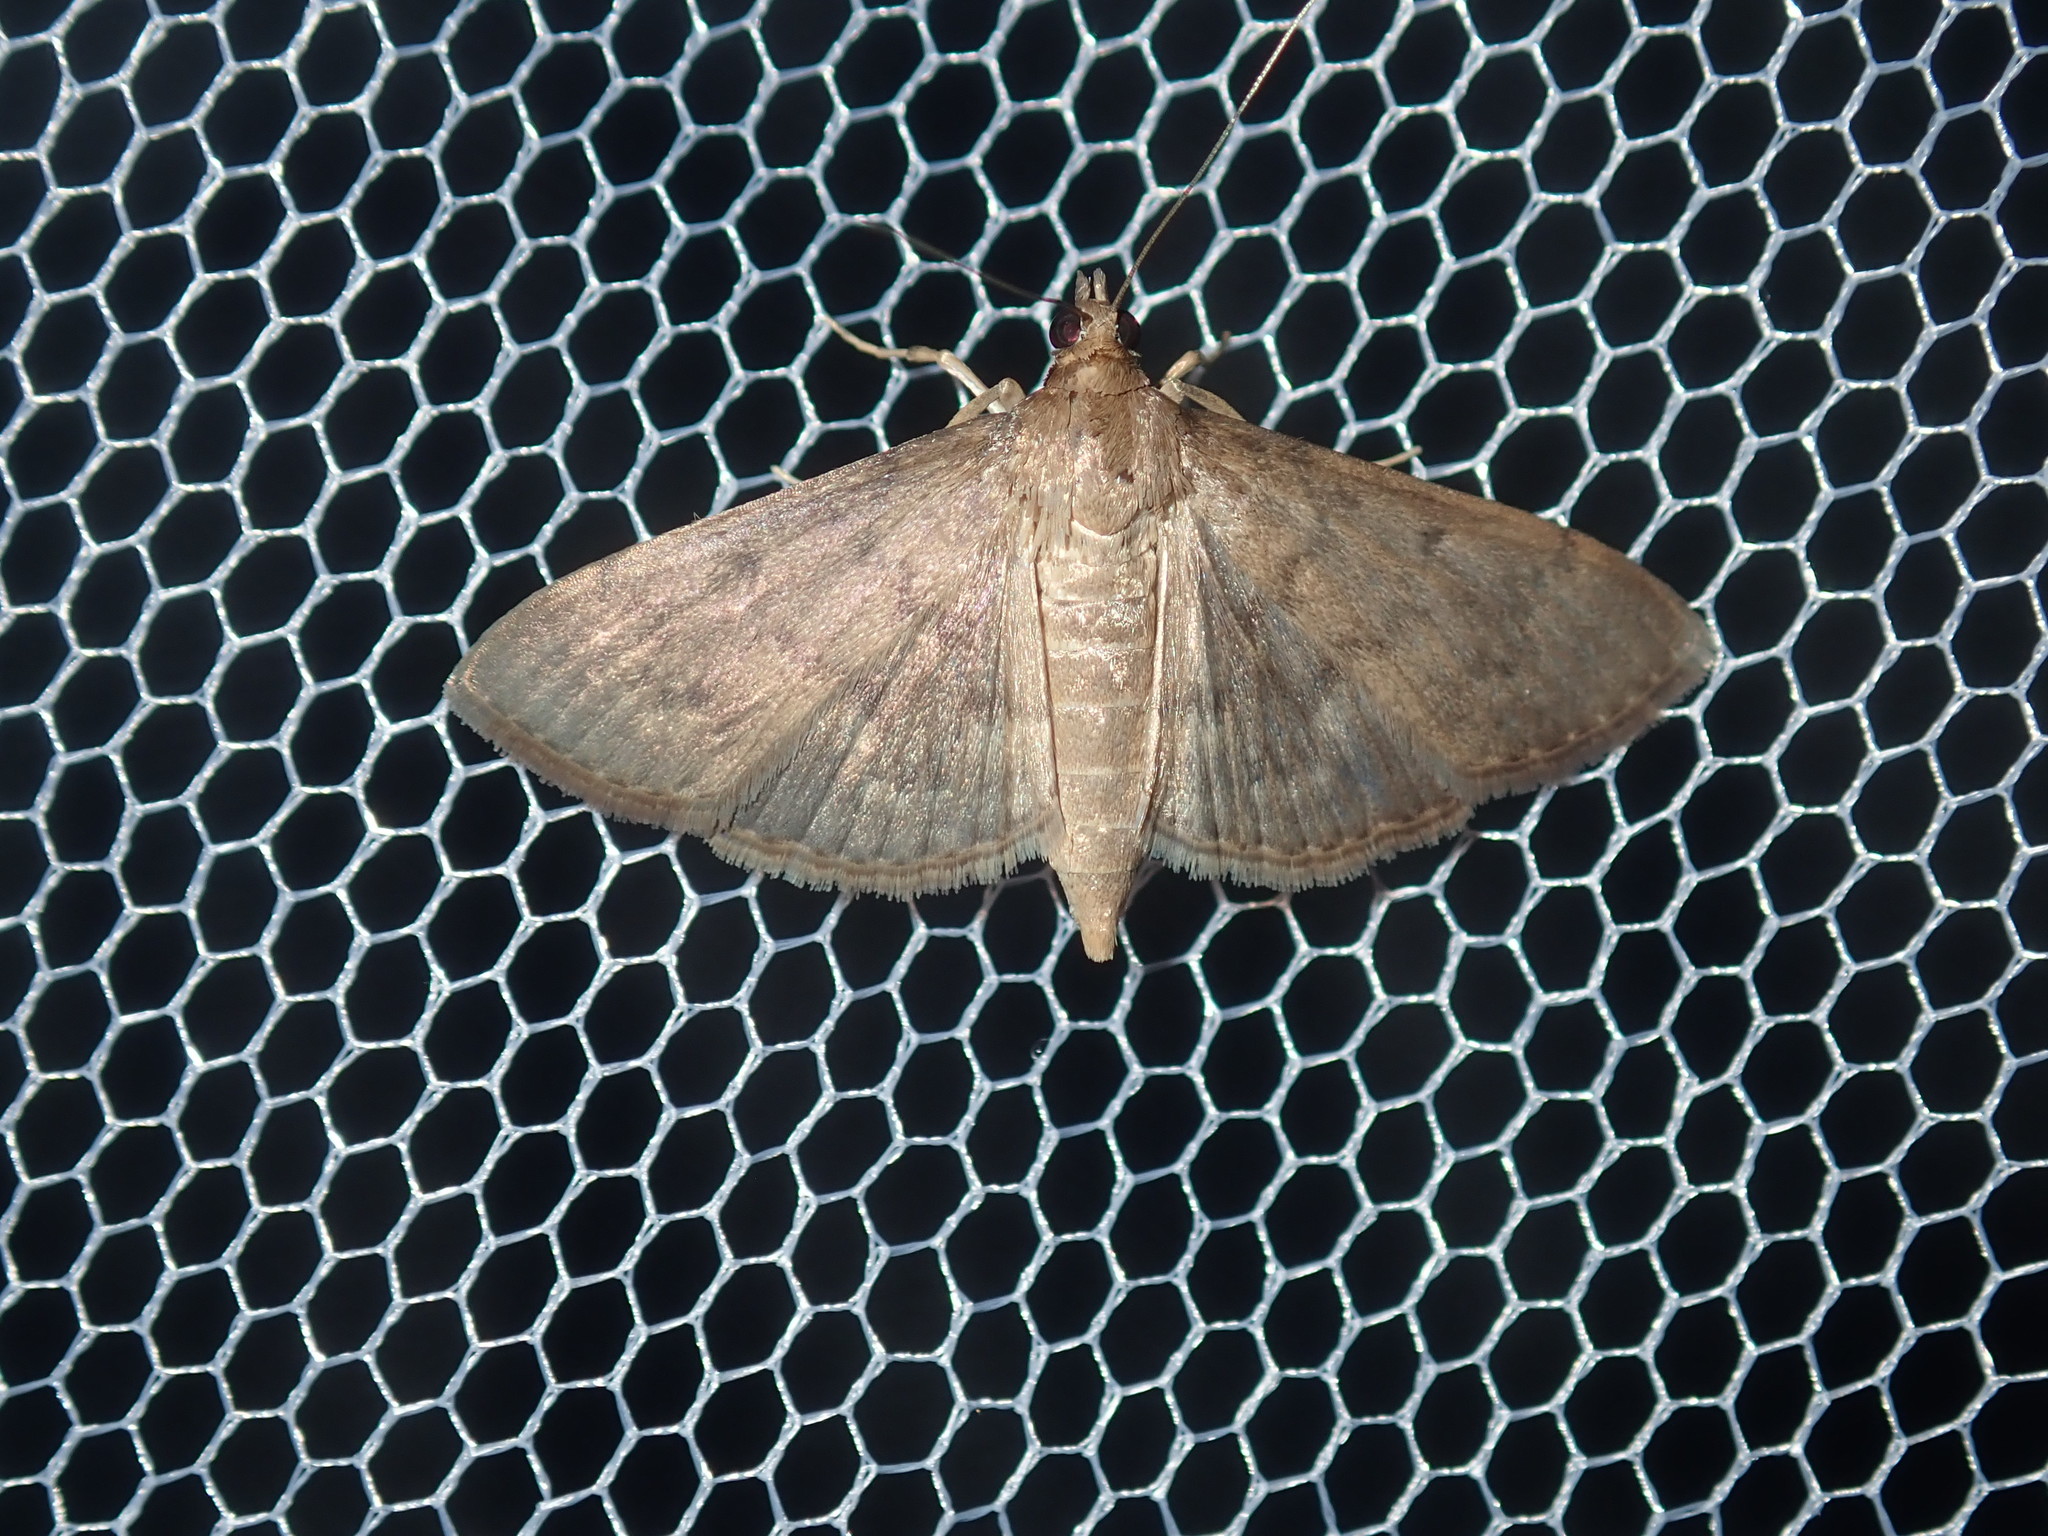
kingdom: Animalia
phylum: Arthropoda
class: Insecta
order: Lepidoptera
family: Crambidae
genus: Herpetogramma
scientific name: Herpetogramma licarsisalis
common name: Grass webworm
